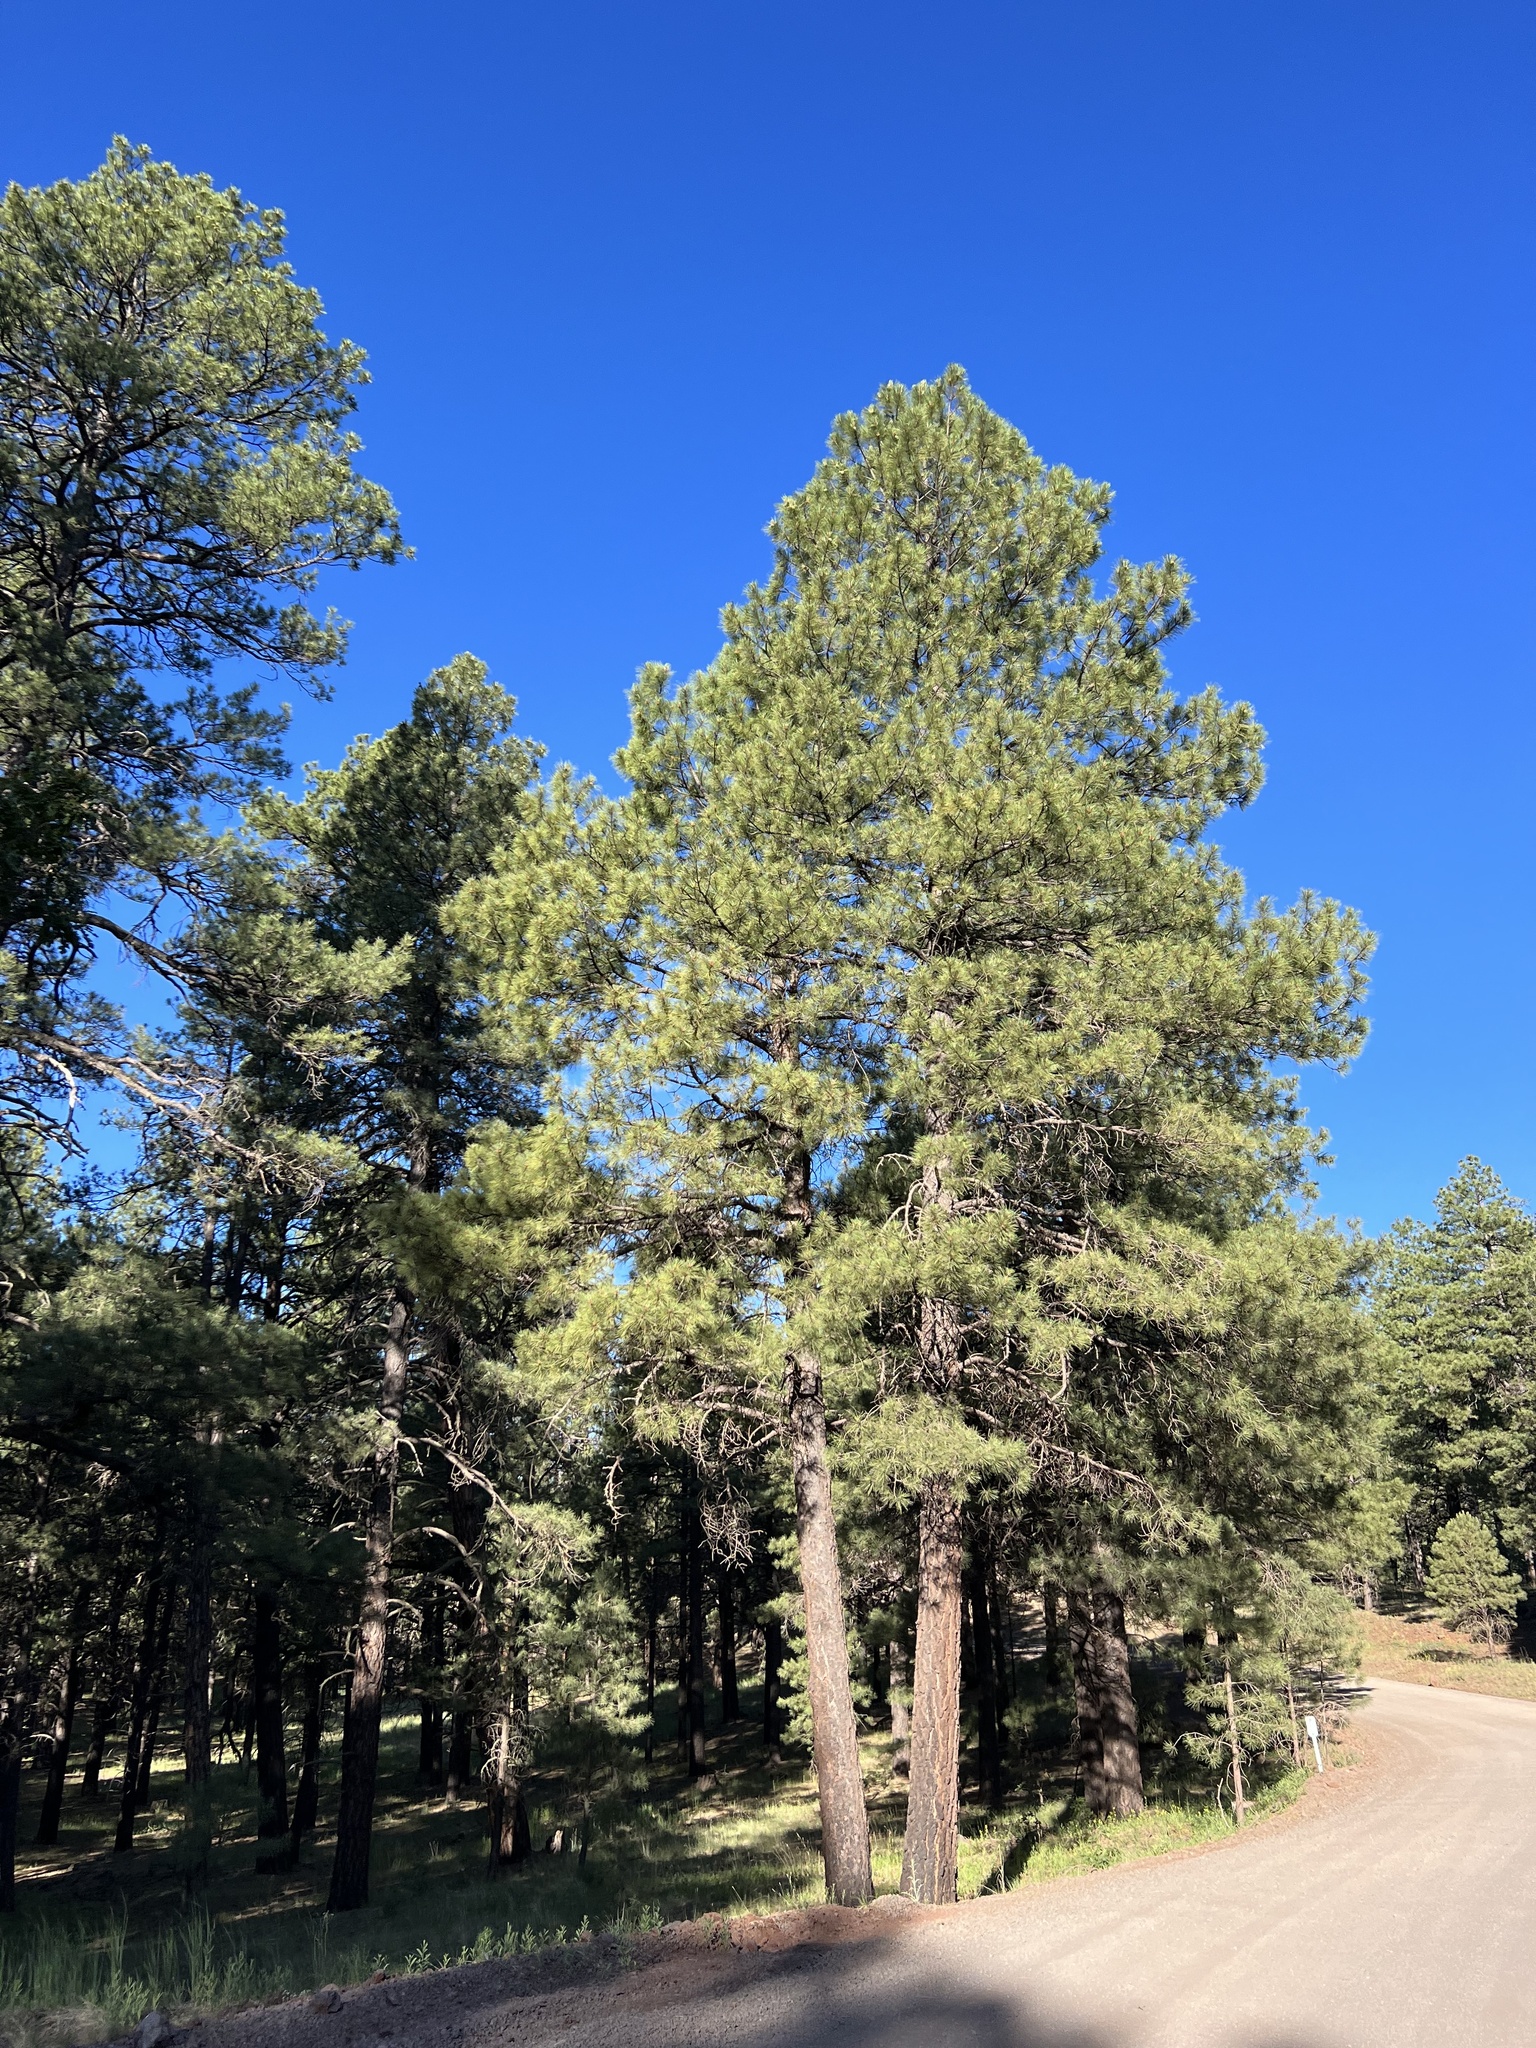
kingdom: Plantae
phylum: Tracheophyta
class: Pinopsida
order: Pinales
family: Pinaceae
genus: Pinus
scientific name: Pinus ponderosa
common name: Western yellow-pine
